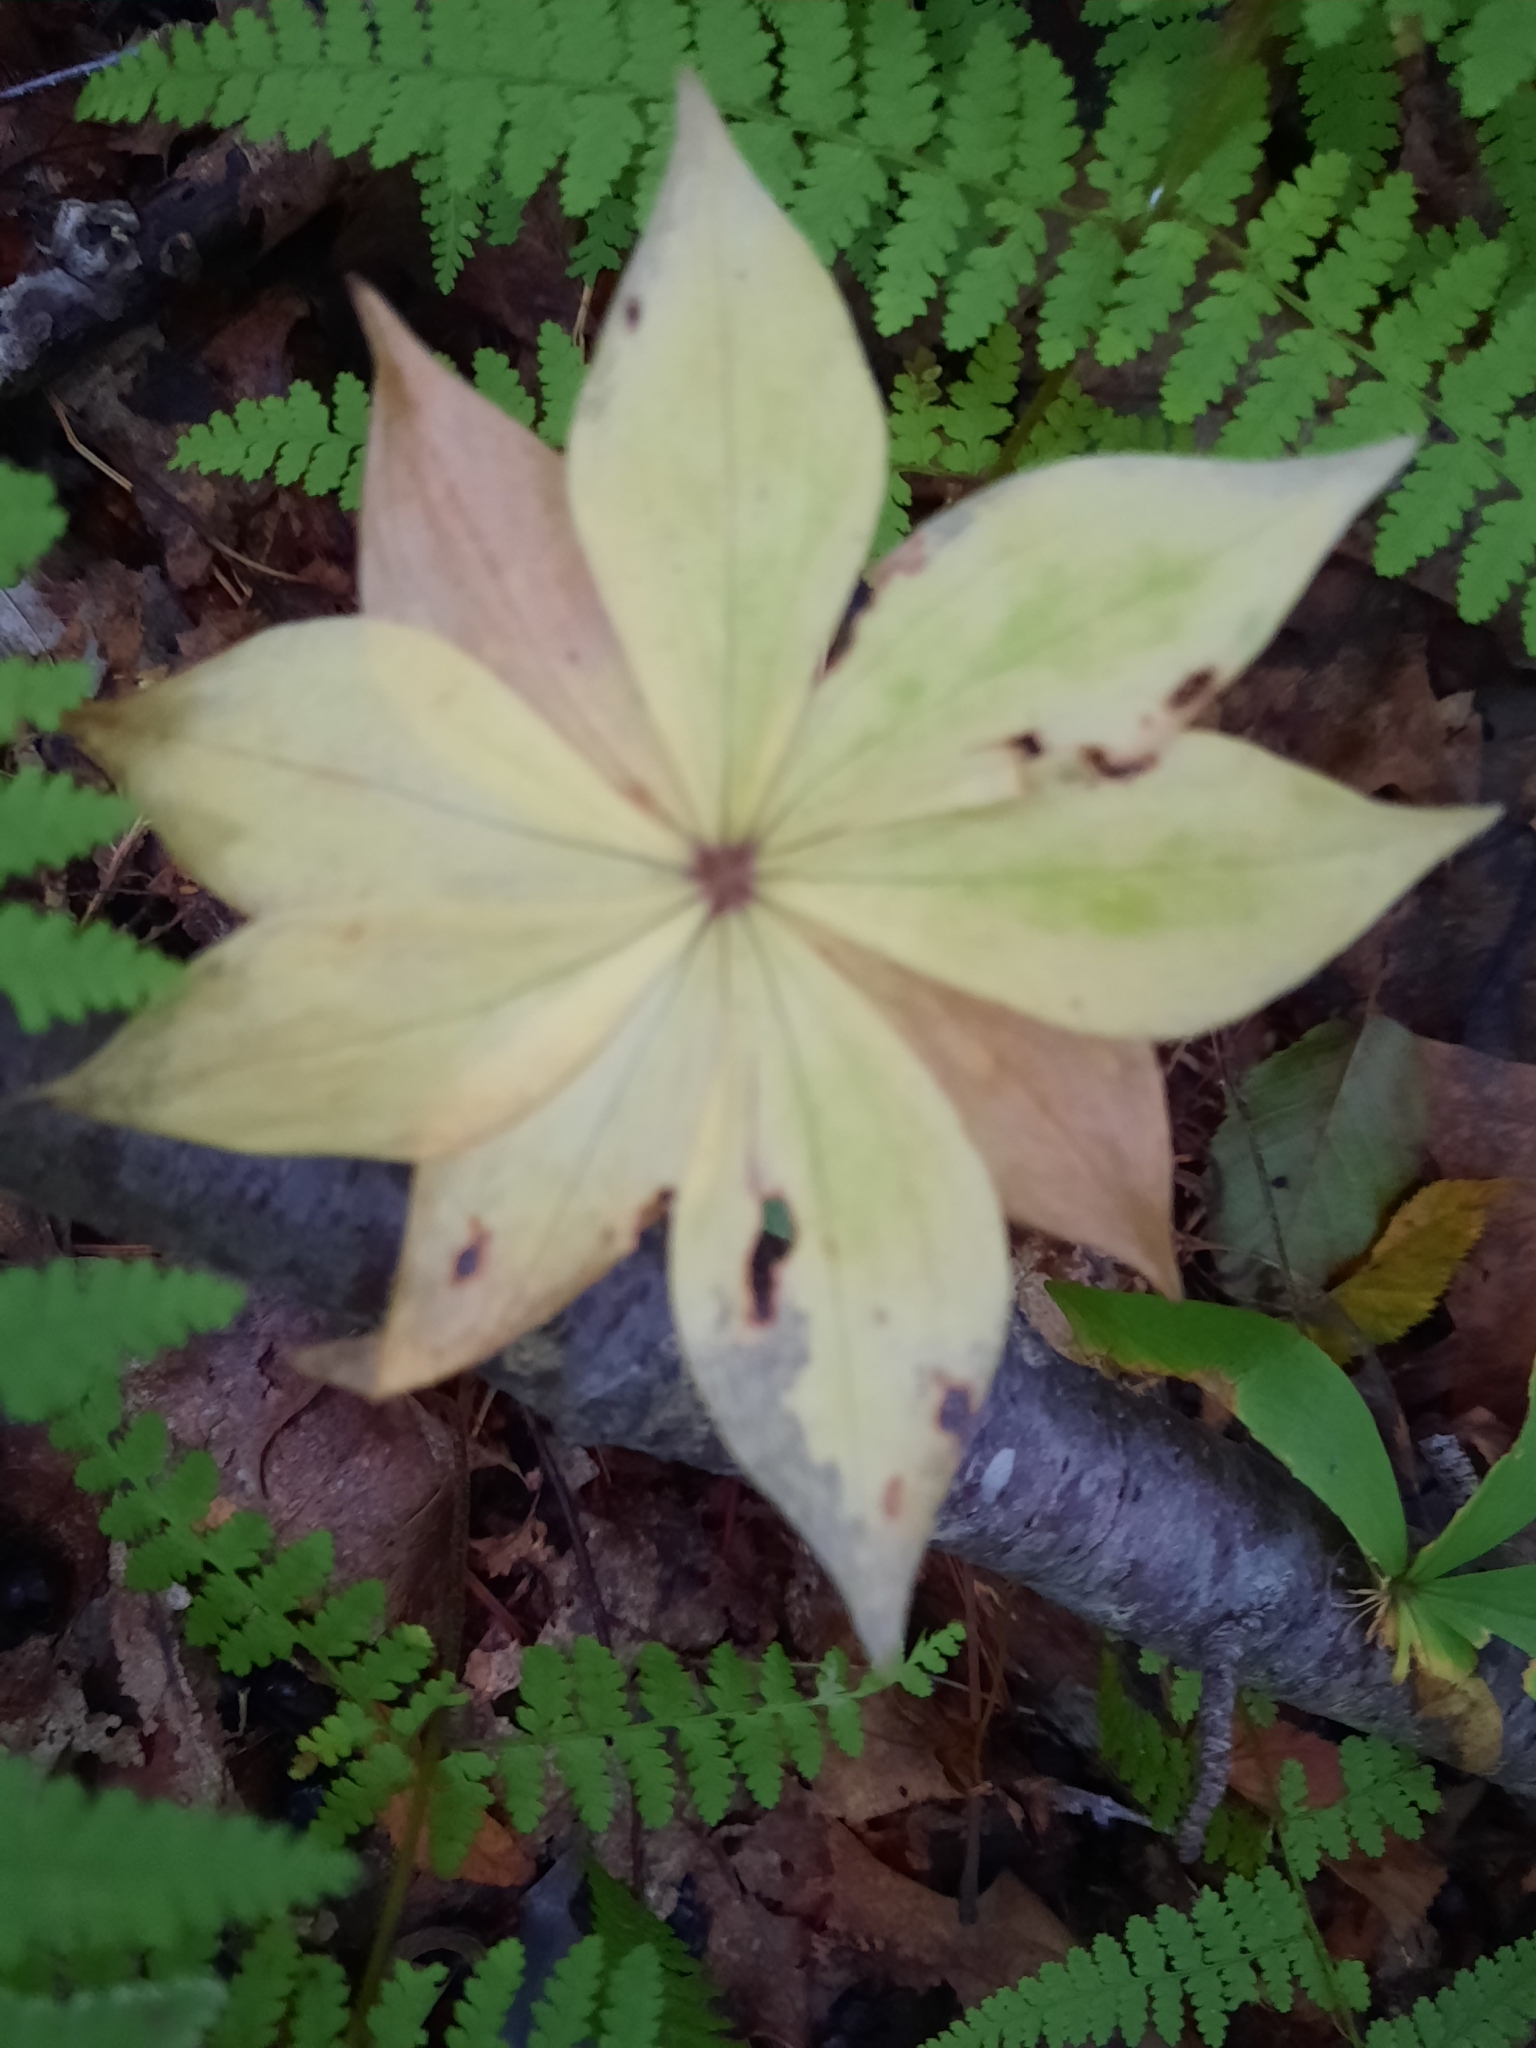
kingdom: Plantae
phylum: Tracheophyta
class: Liliopsida
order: Liliales
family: Liliaceae
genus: Medeola
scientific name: Medeola virginiana
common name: Indian cucumber-root
